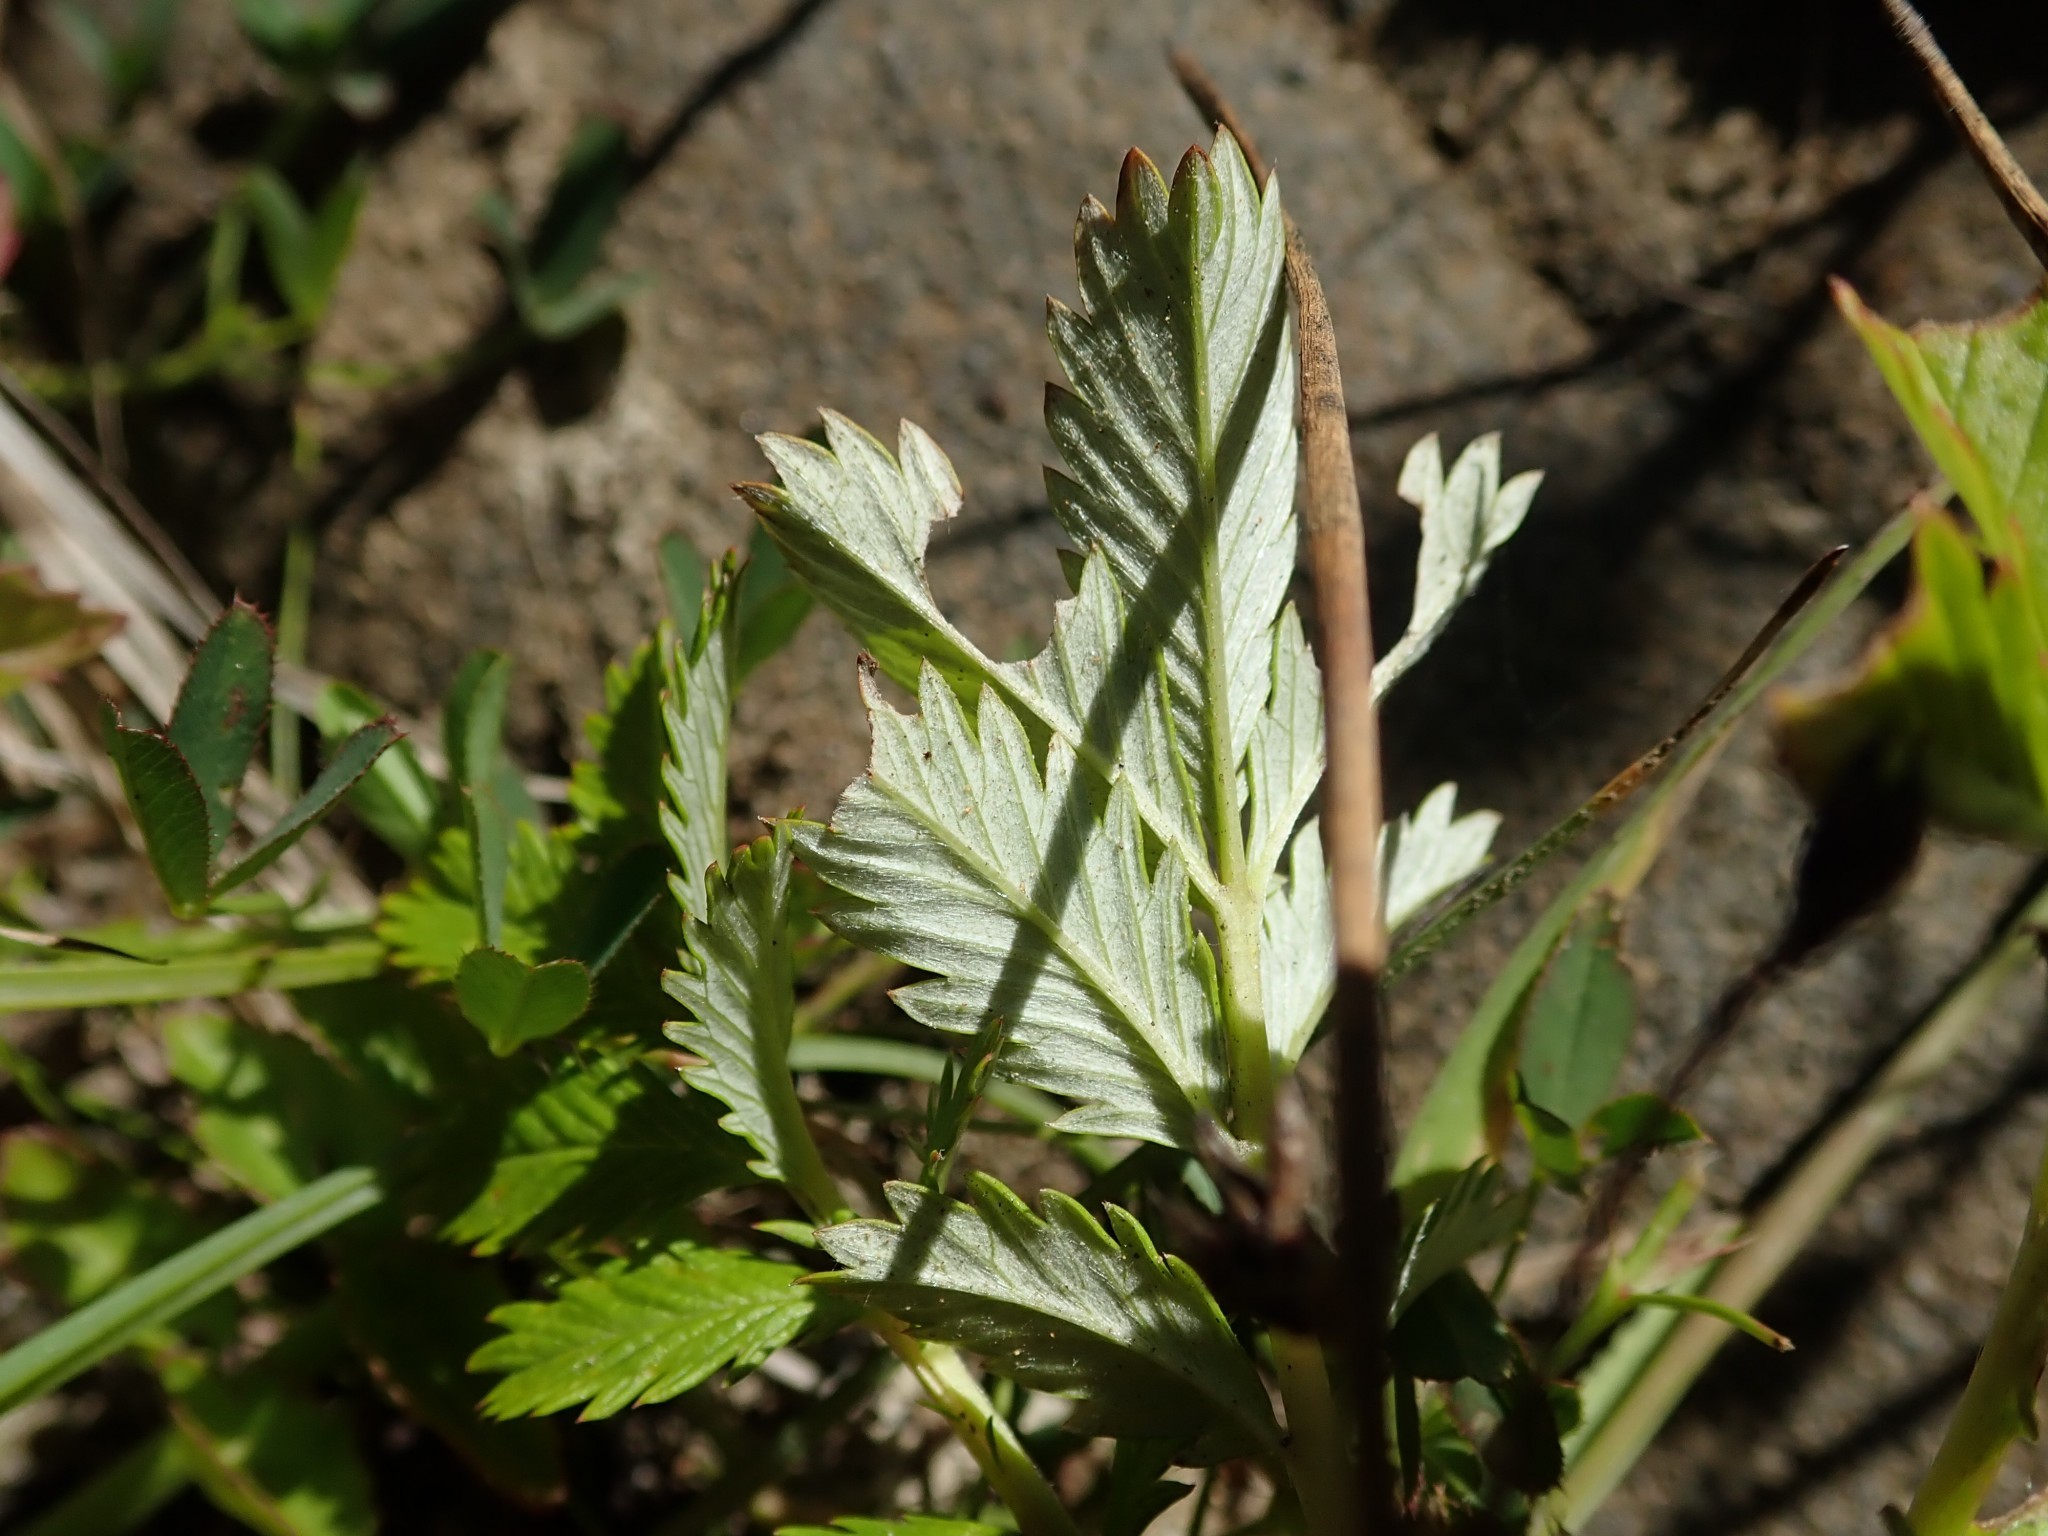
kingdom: Plantae
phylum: Tracheophyta
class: Magnoliopsida
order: Rosales
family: Rosaceae
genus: Argentina
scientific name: Argentina anserina
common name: Common silverweed
